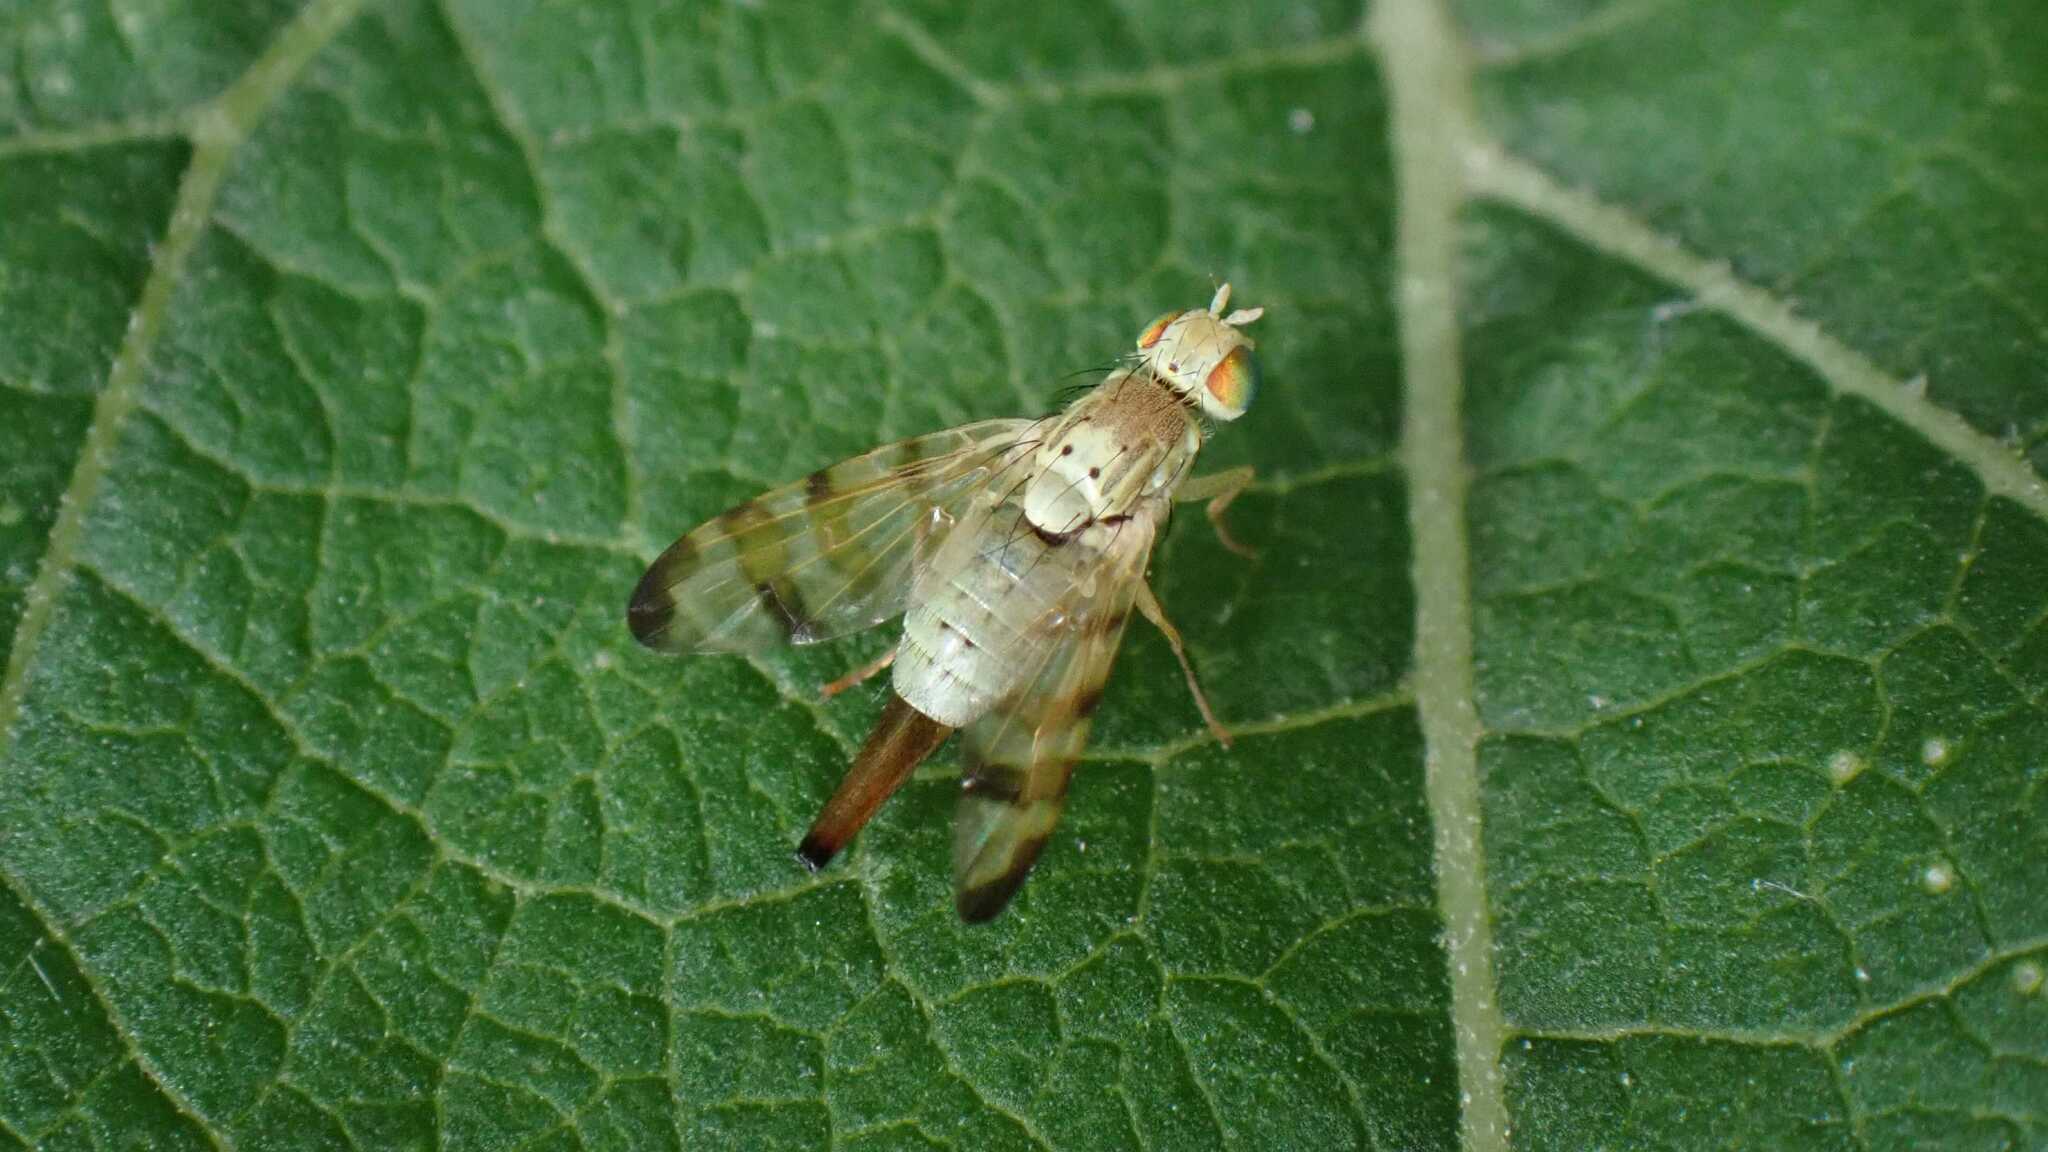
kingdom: Animalia
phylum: Arthropoda
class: Insecta
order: Diptera
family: Tephritidae
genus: Terellia
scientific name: Terellia tussilaginis
